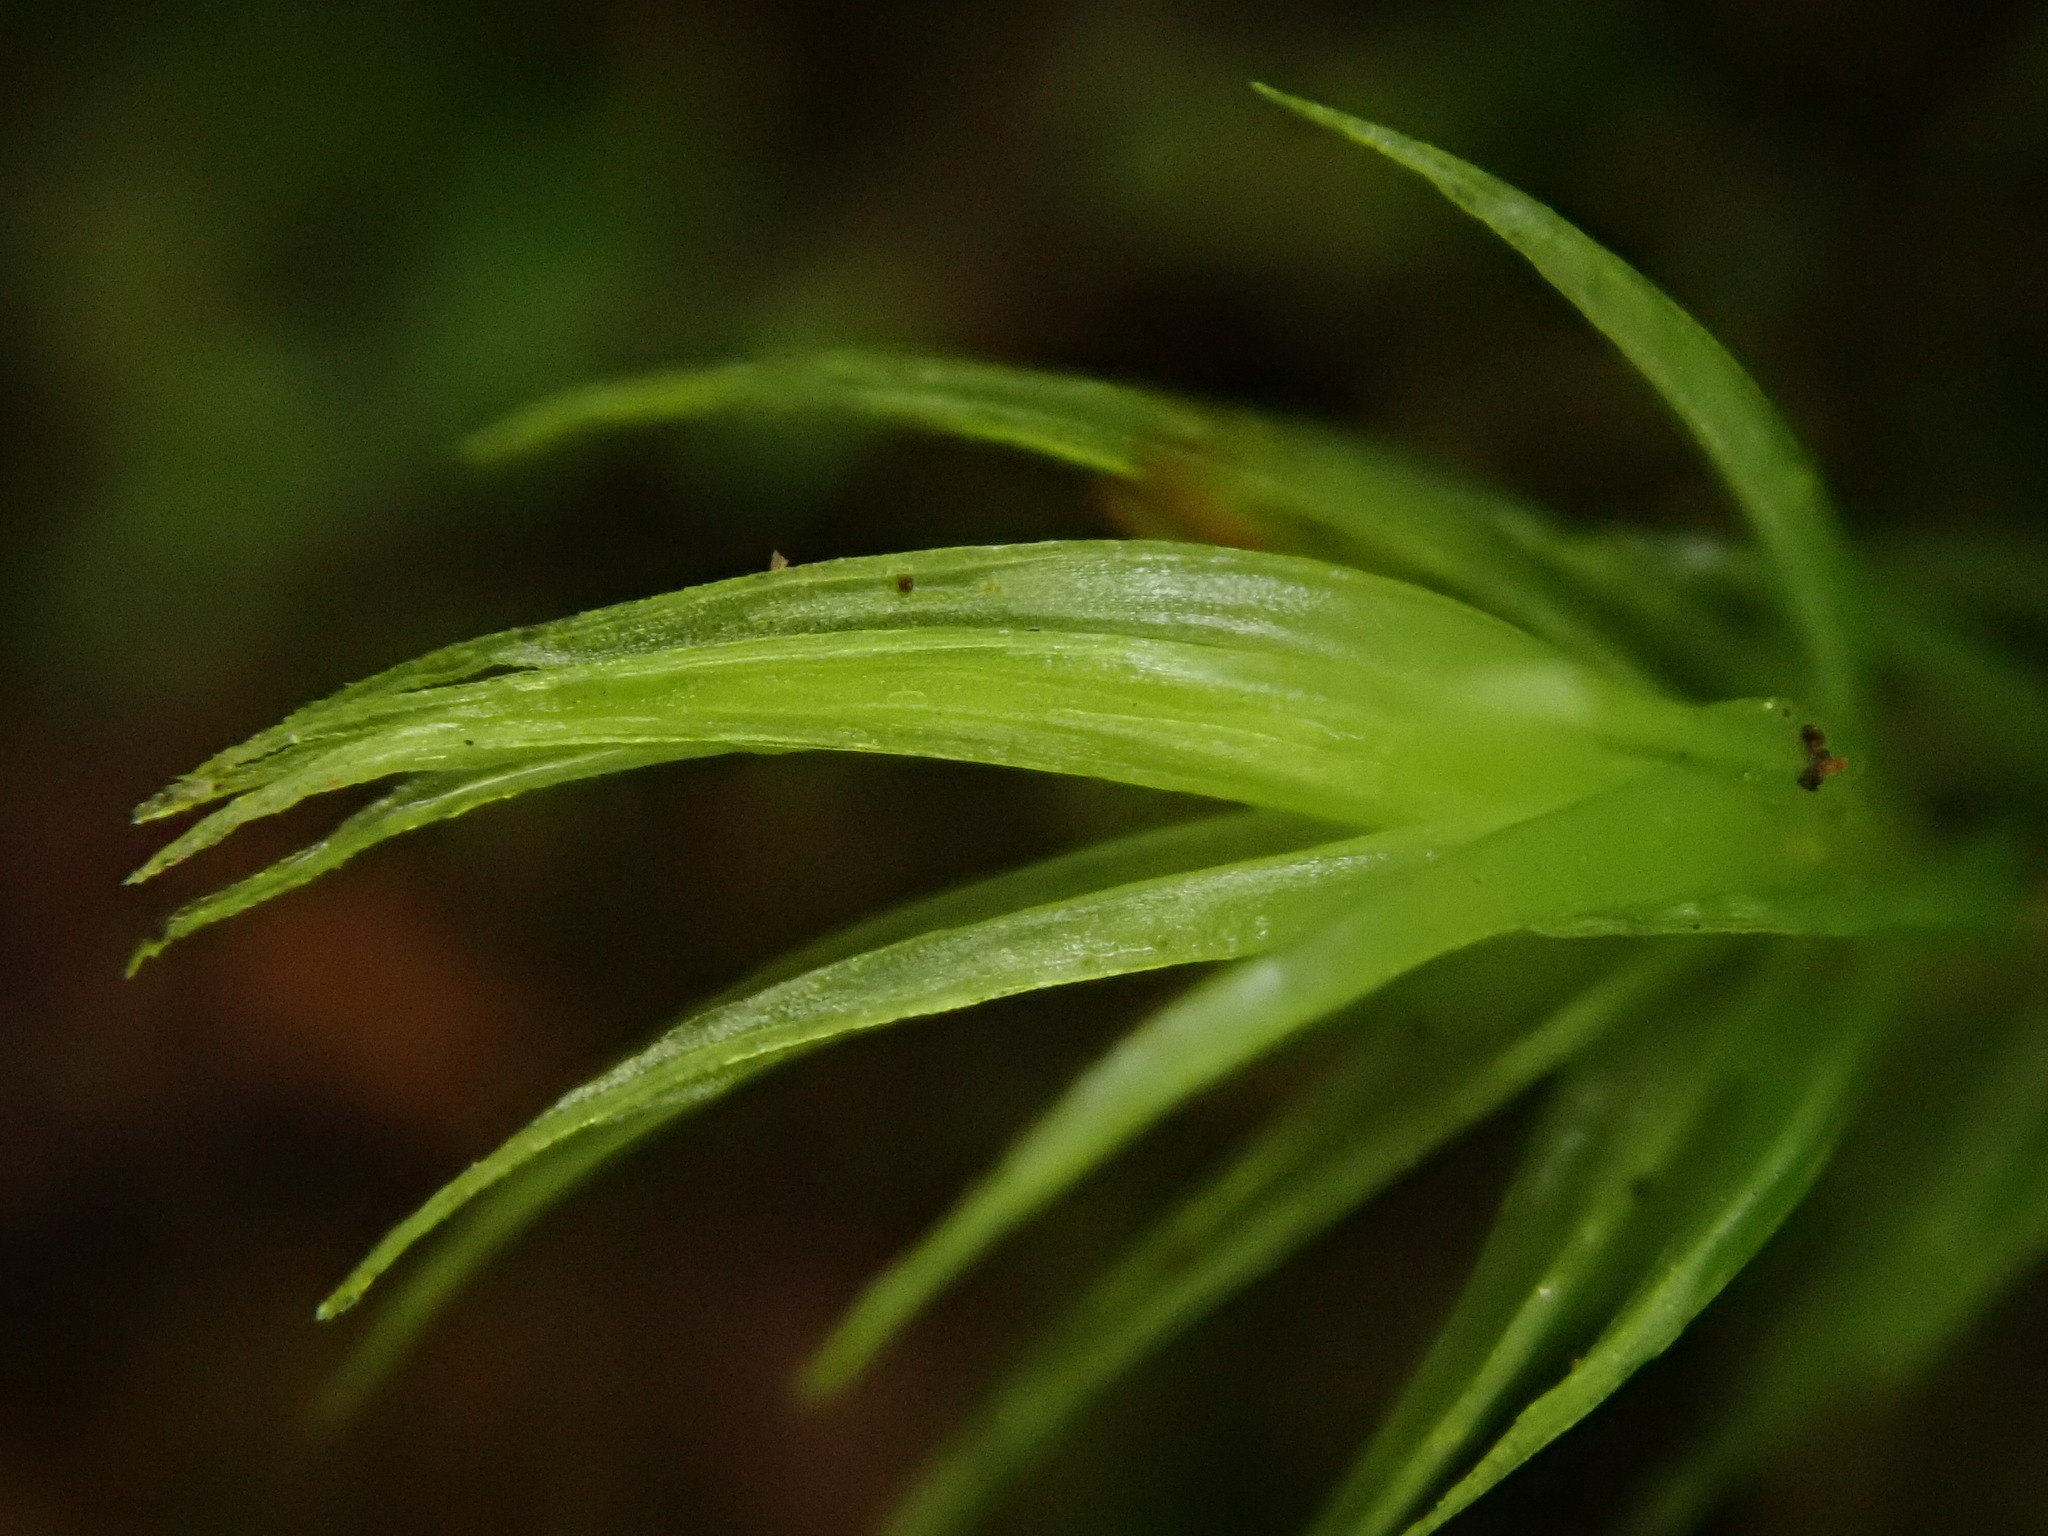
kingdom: Plantae
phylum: Bryophyta
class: Bryopsida
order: Dicranales
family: Dicranaceae
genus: Dicranum
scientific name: Dicranum scoparium
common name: Broom fork-moss
